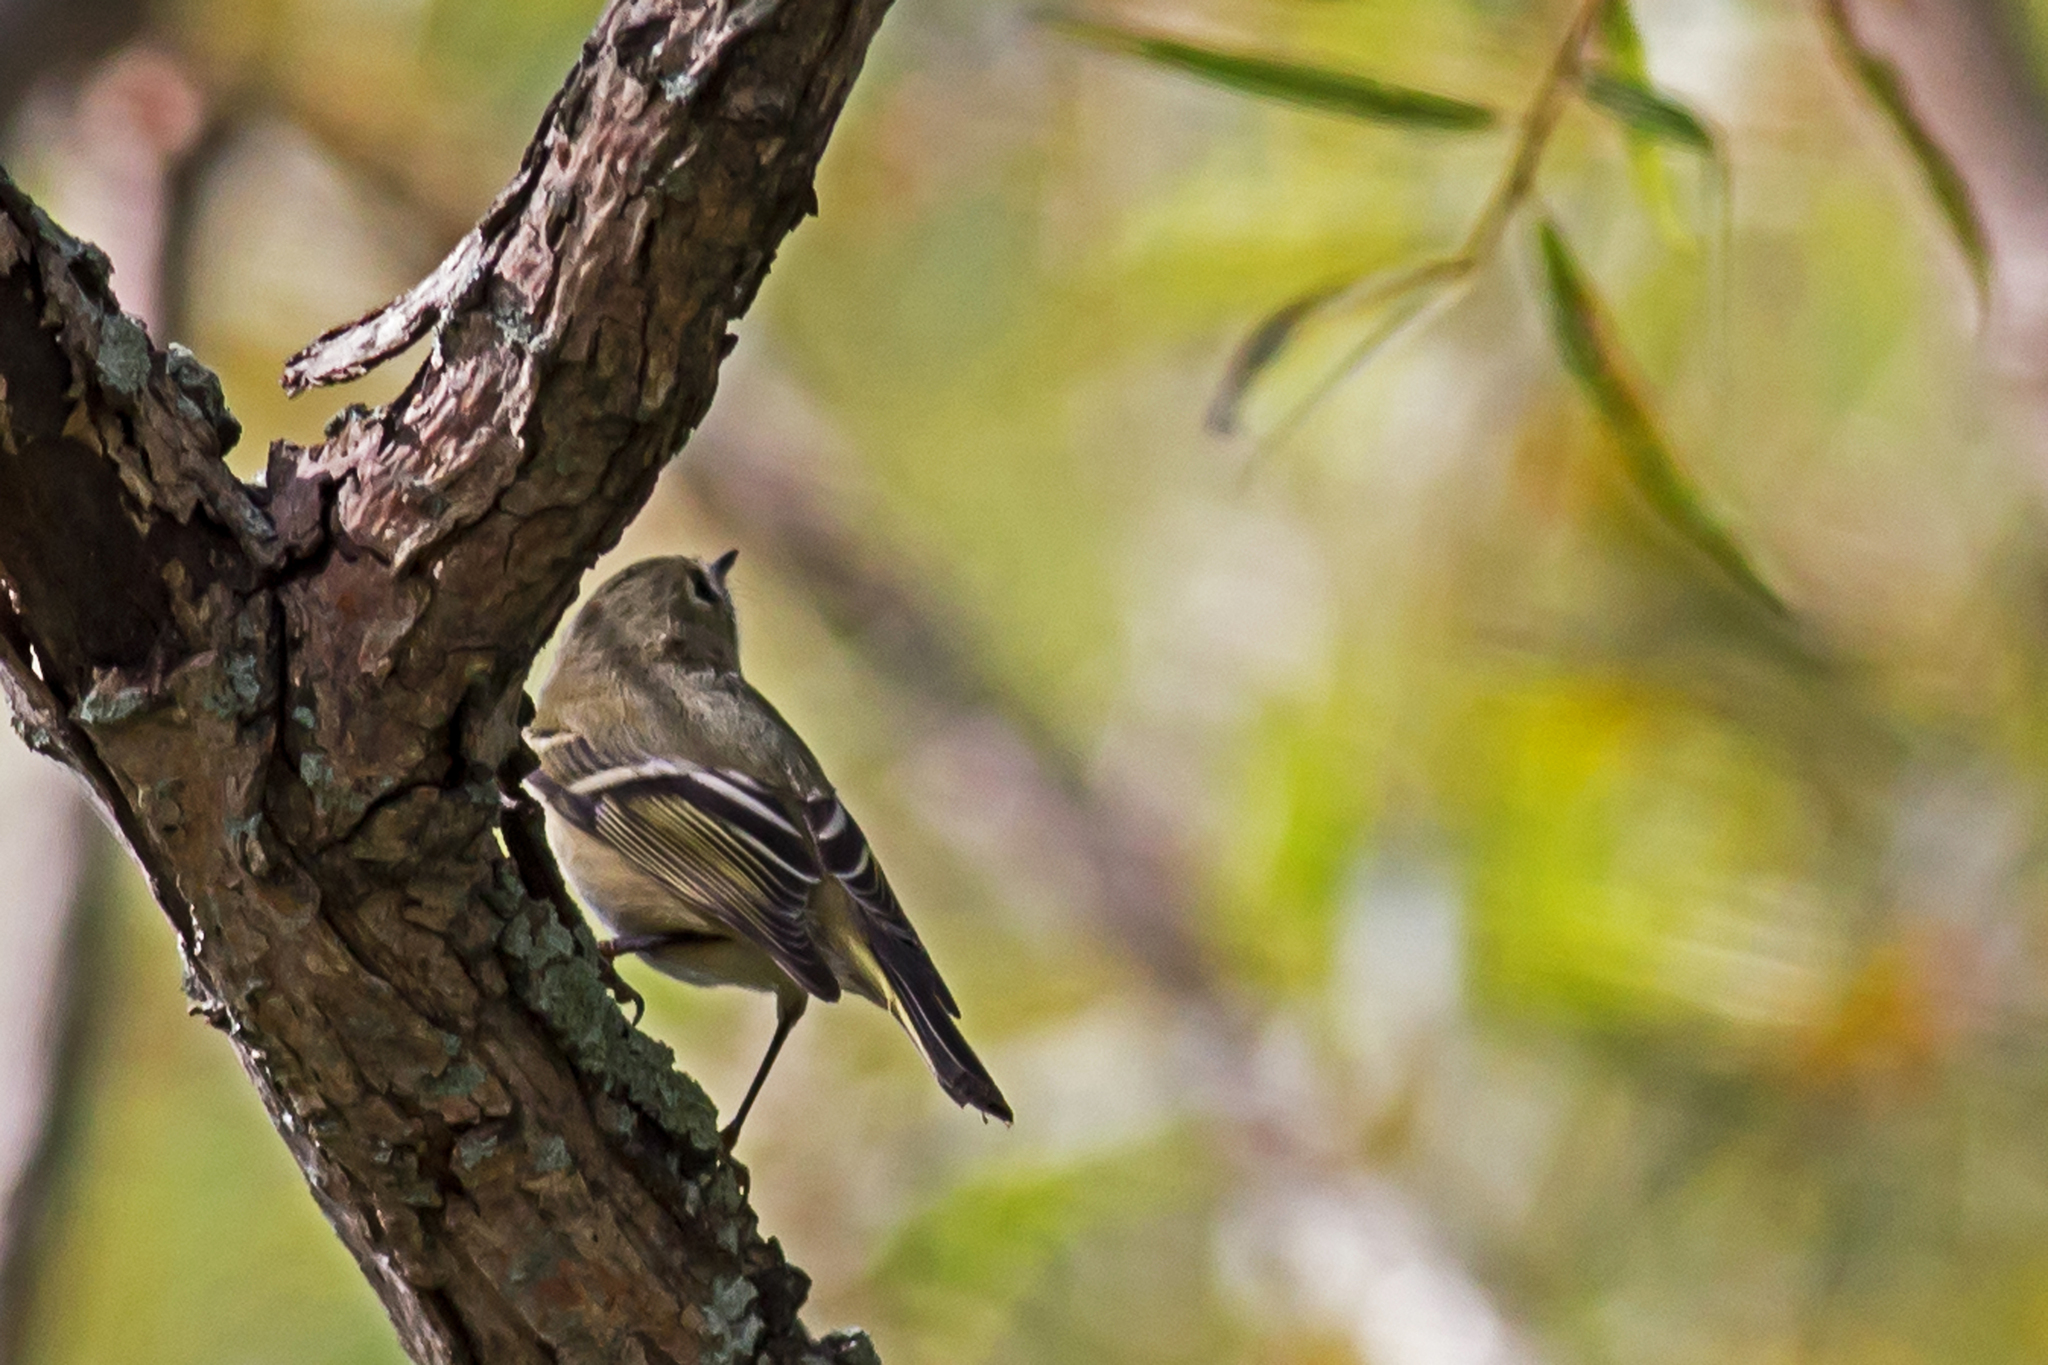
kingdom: Animalia
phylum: Chordata
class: Aves
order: Passeriformes
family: Regulidae
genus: Regulus
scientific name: Regulus calendula
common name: Ruby-crowned kinglet
